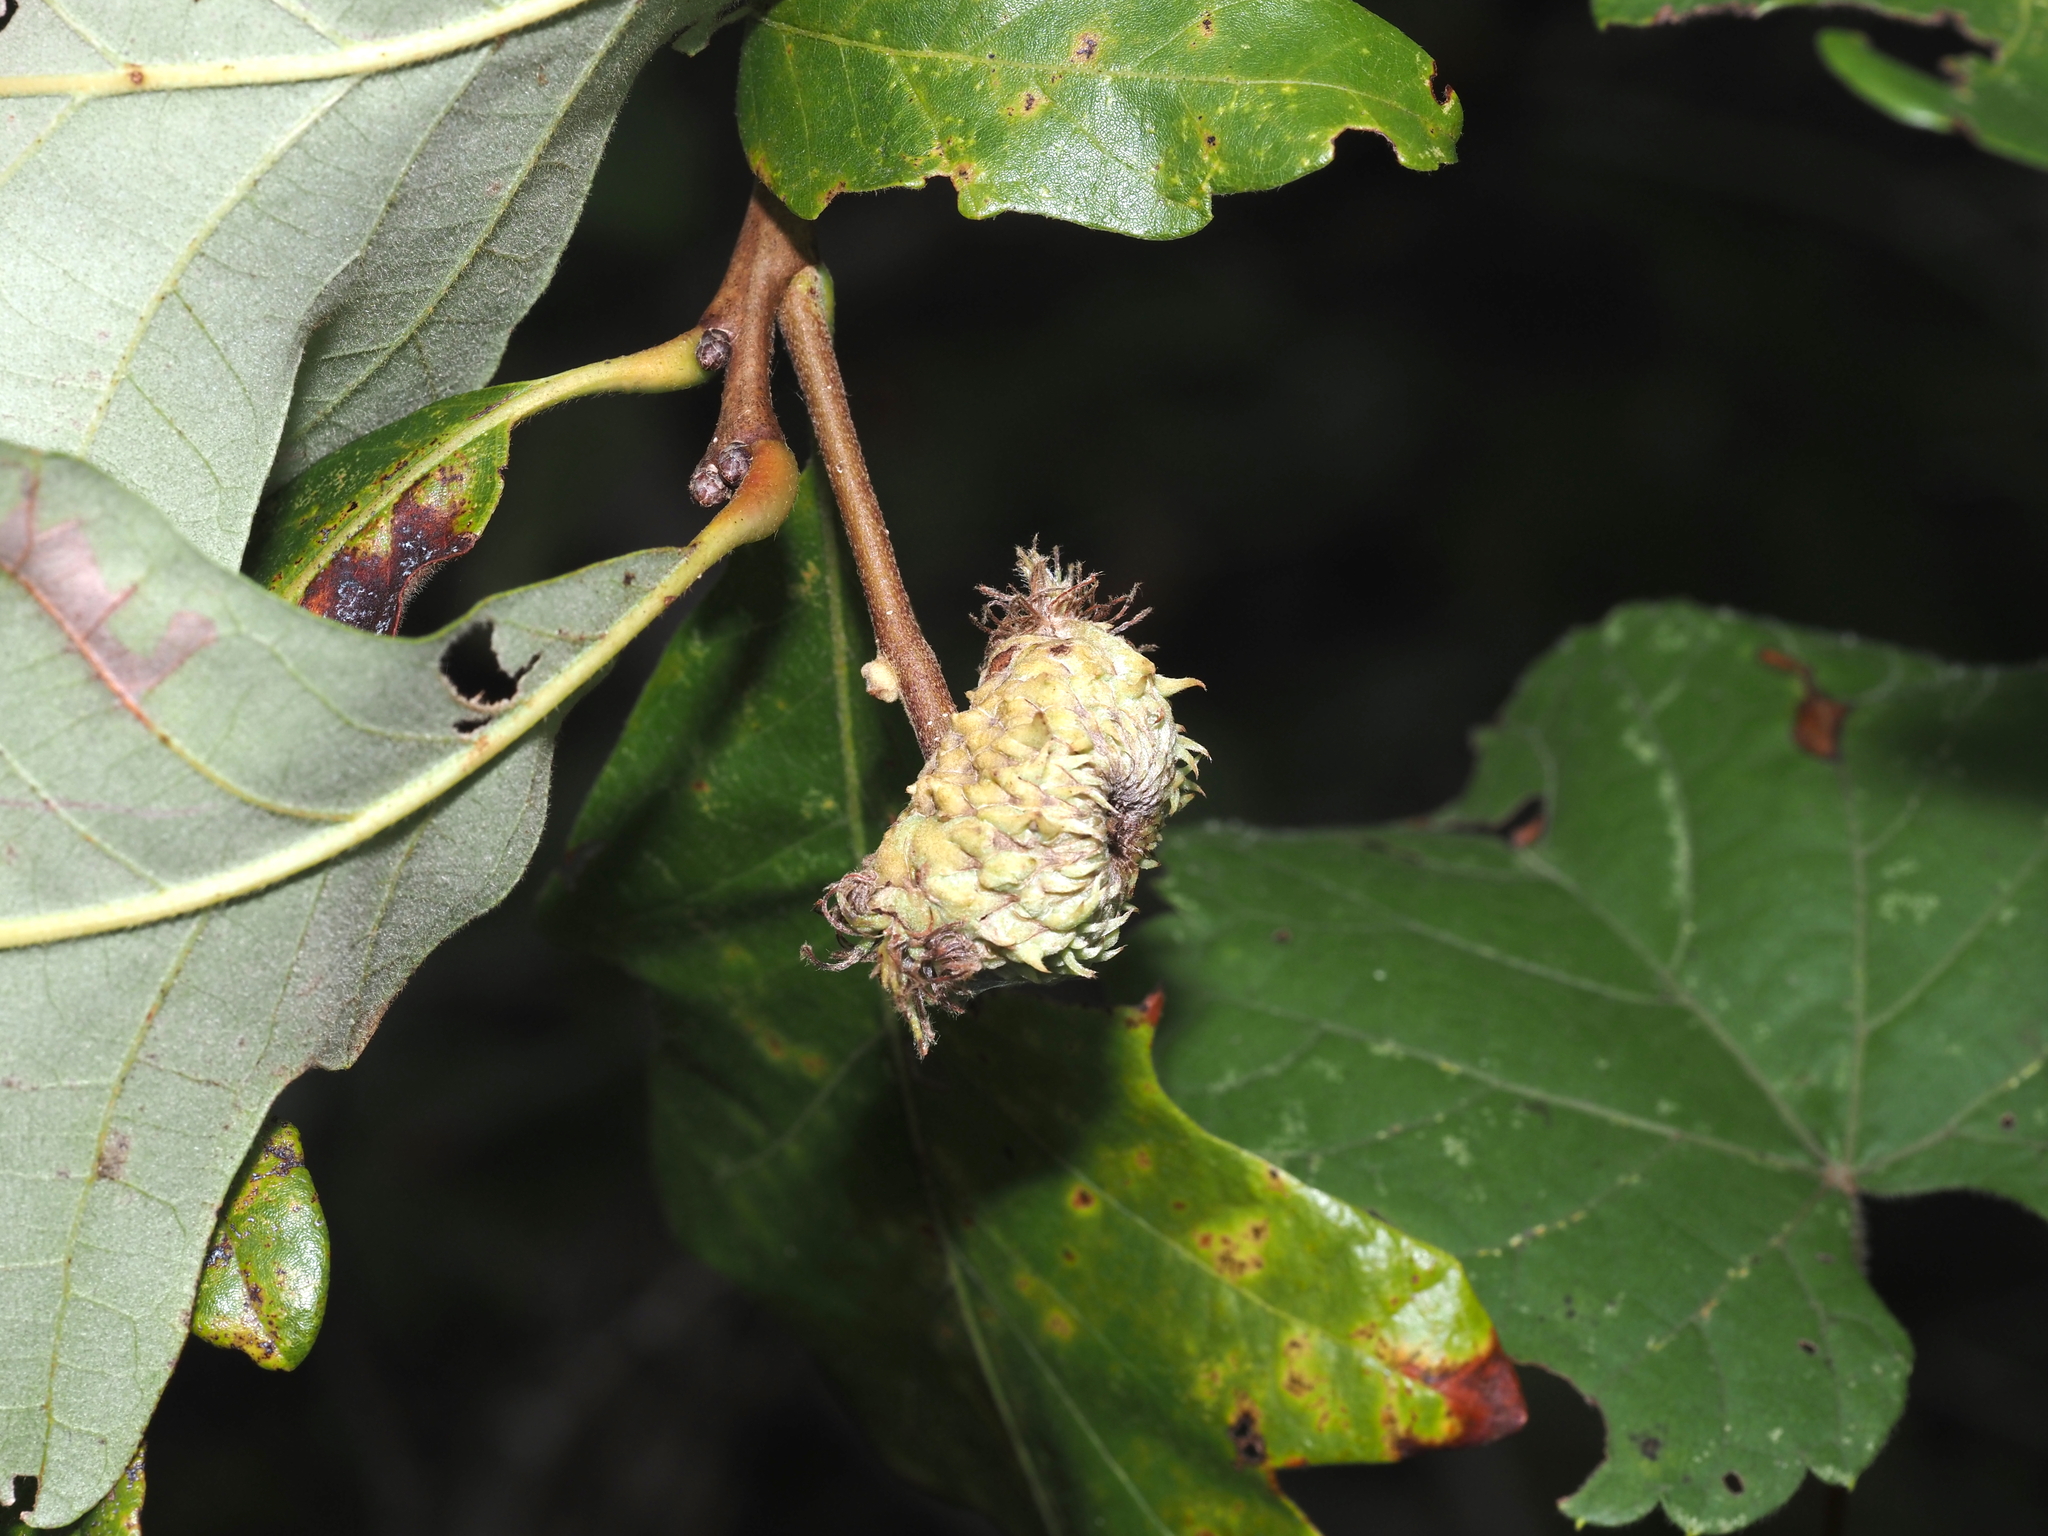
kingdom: Animalia
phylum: Arthropoda
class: Insecta
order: Hymenoptera
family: Cynipidae
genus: Andricus
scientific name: Andricus
